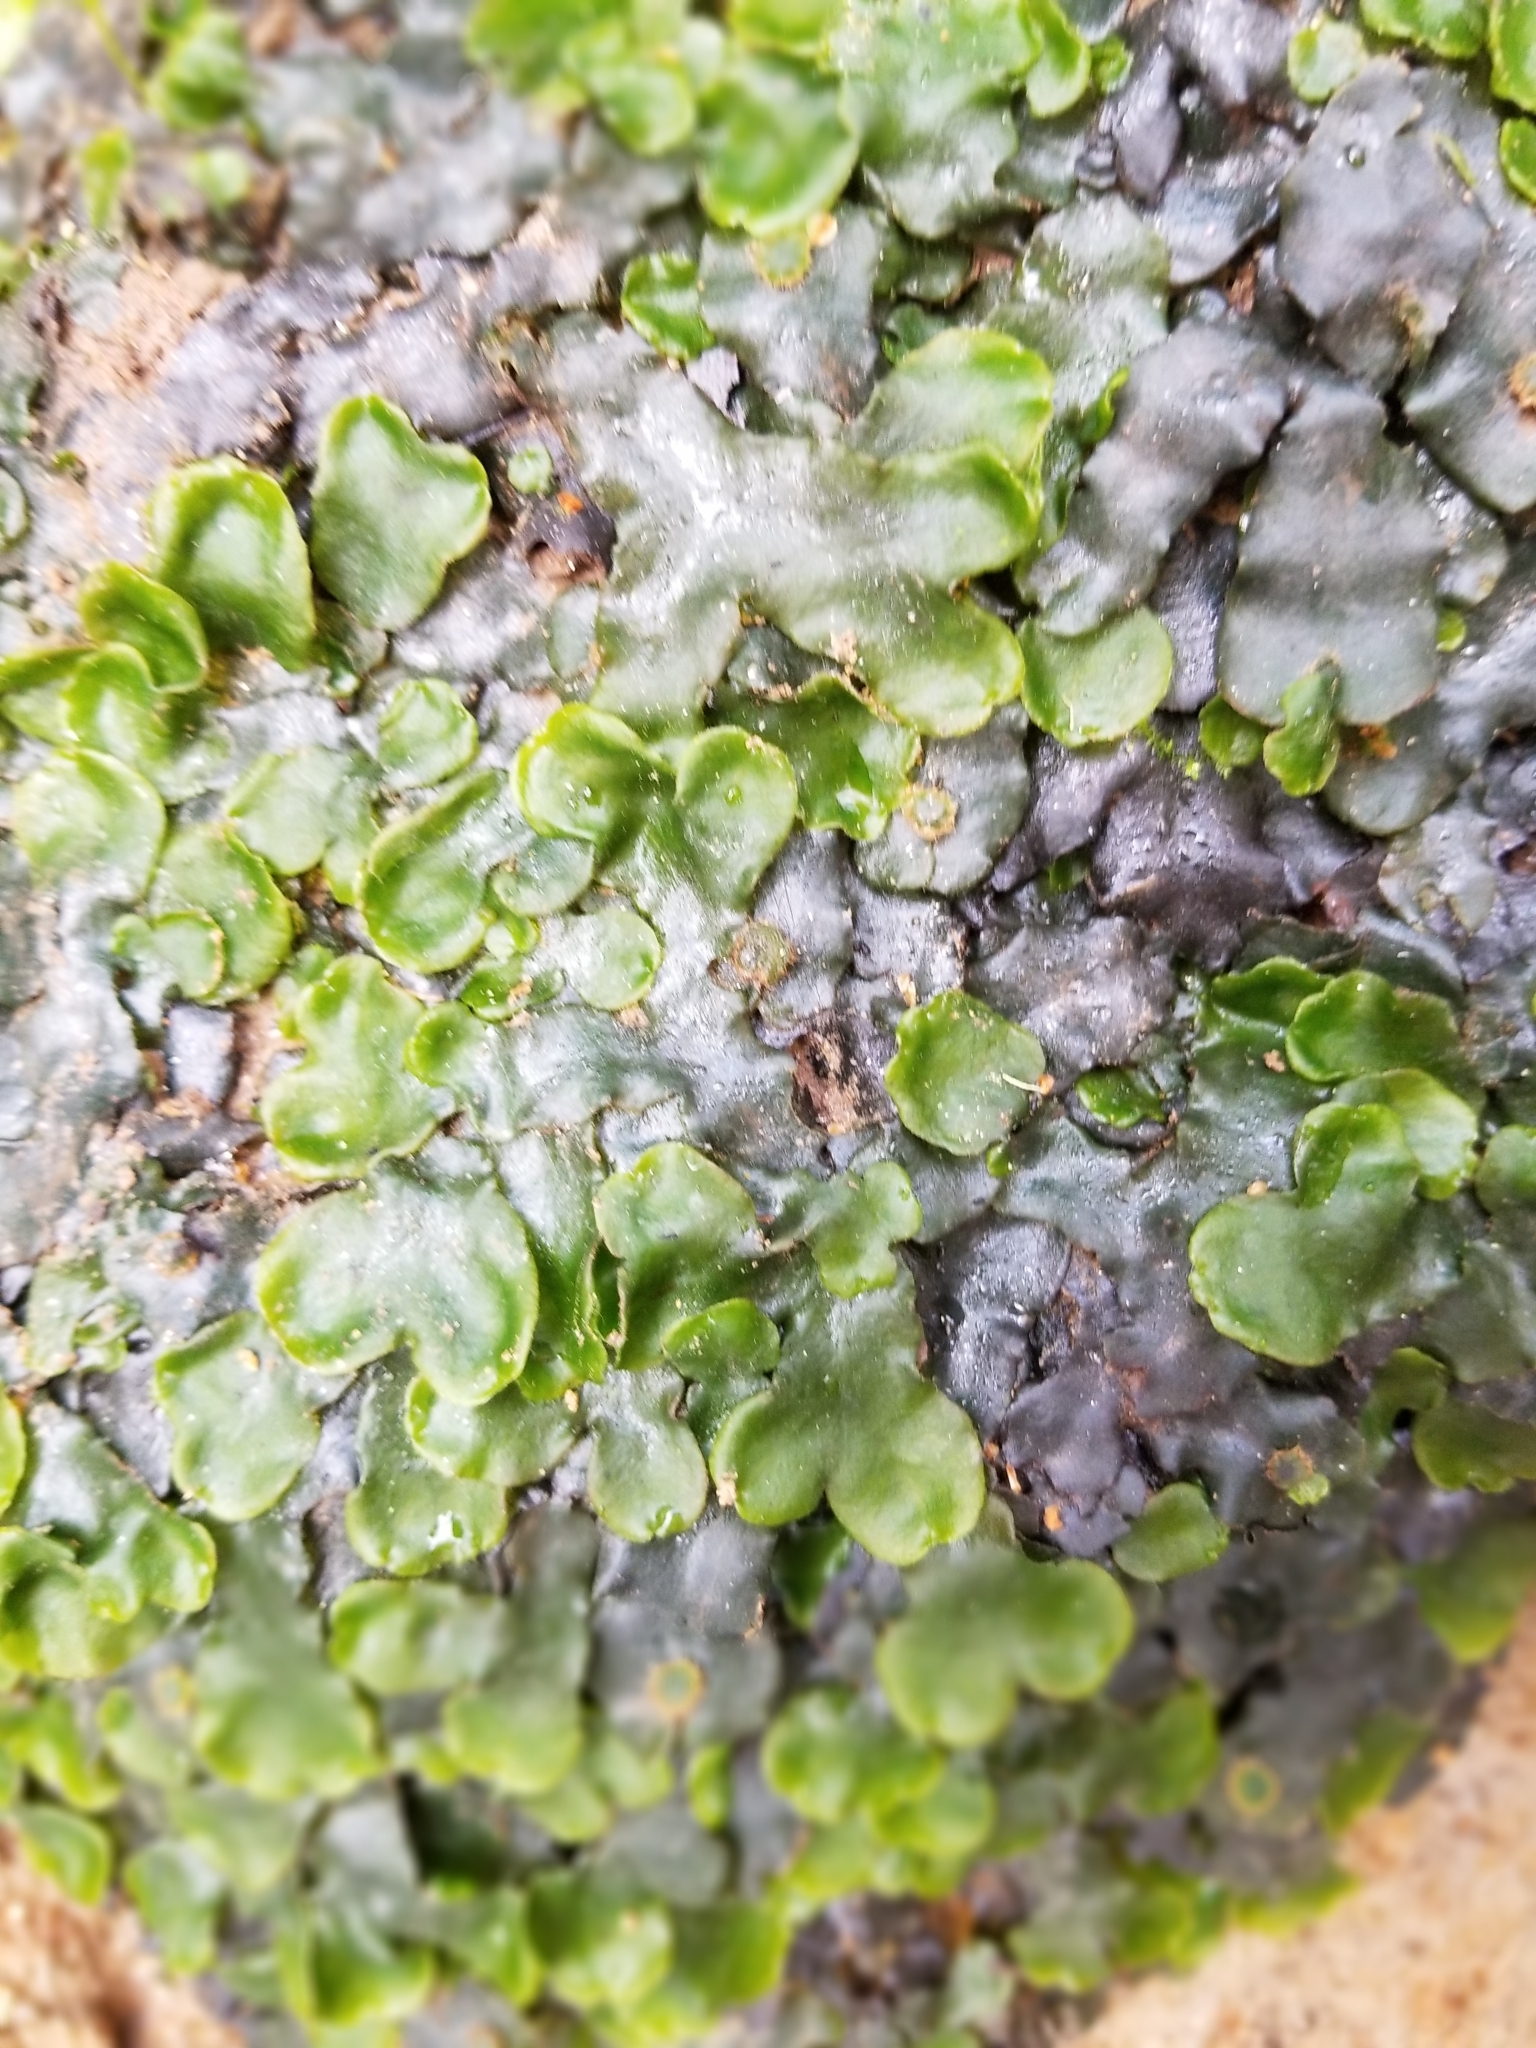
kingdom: Plantae
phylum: Marchantiophyta
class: Marchantiopsida
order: Marchantiales
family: Dumortieraceae
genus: Dumortiera
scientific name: Dumortiera hirsuta
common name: Dumortier's liverwort
